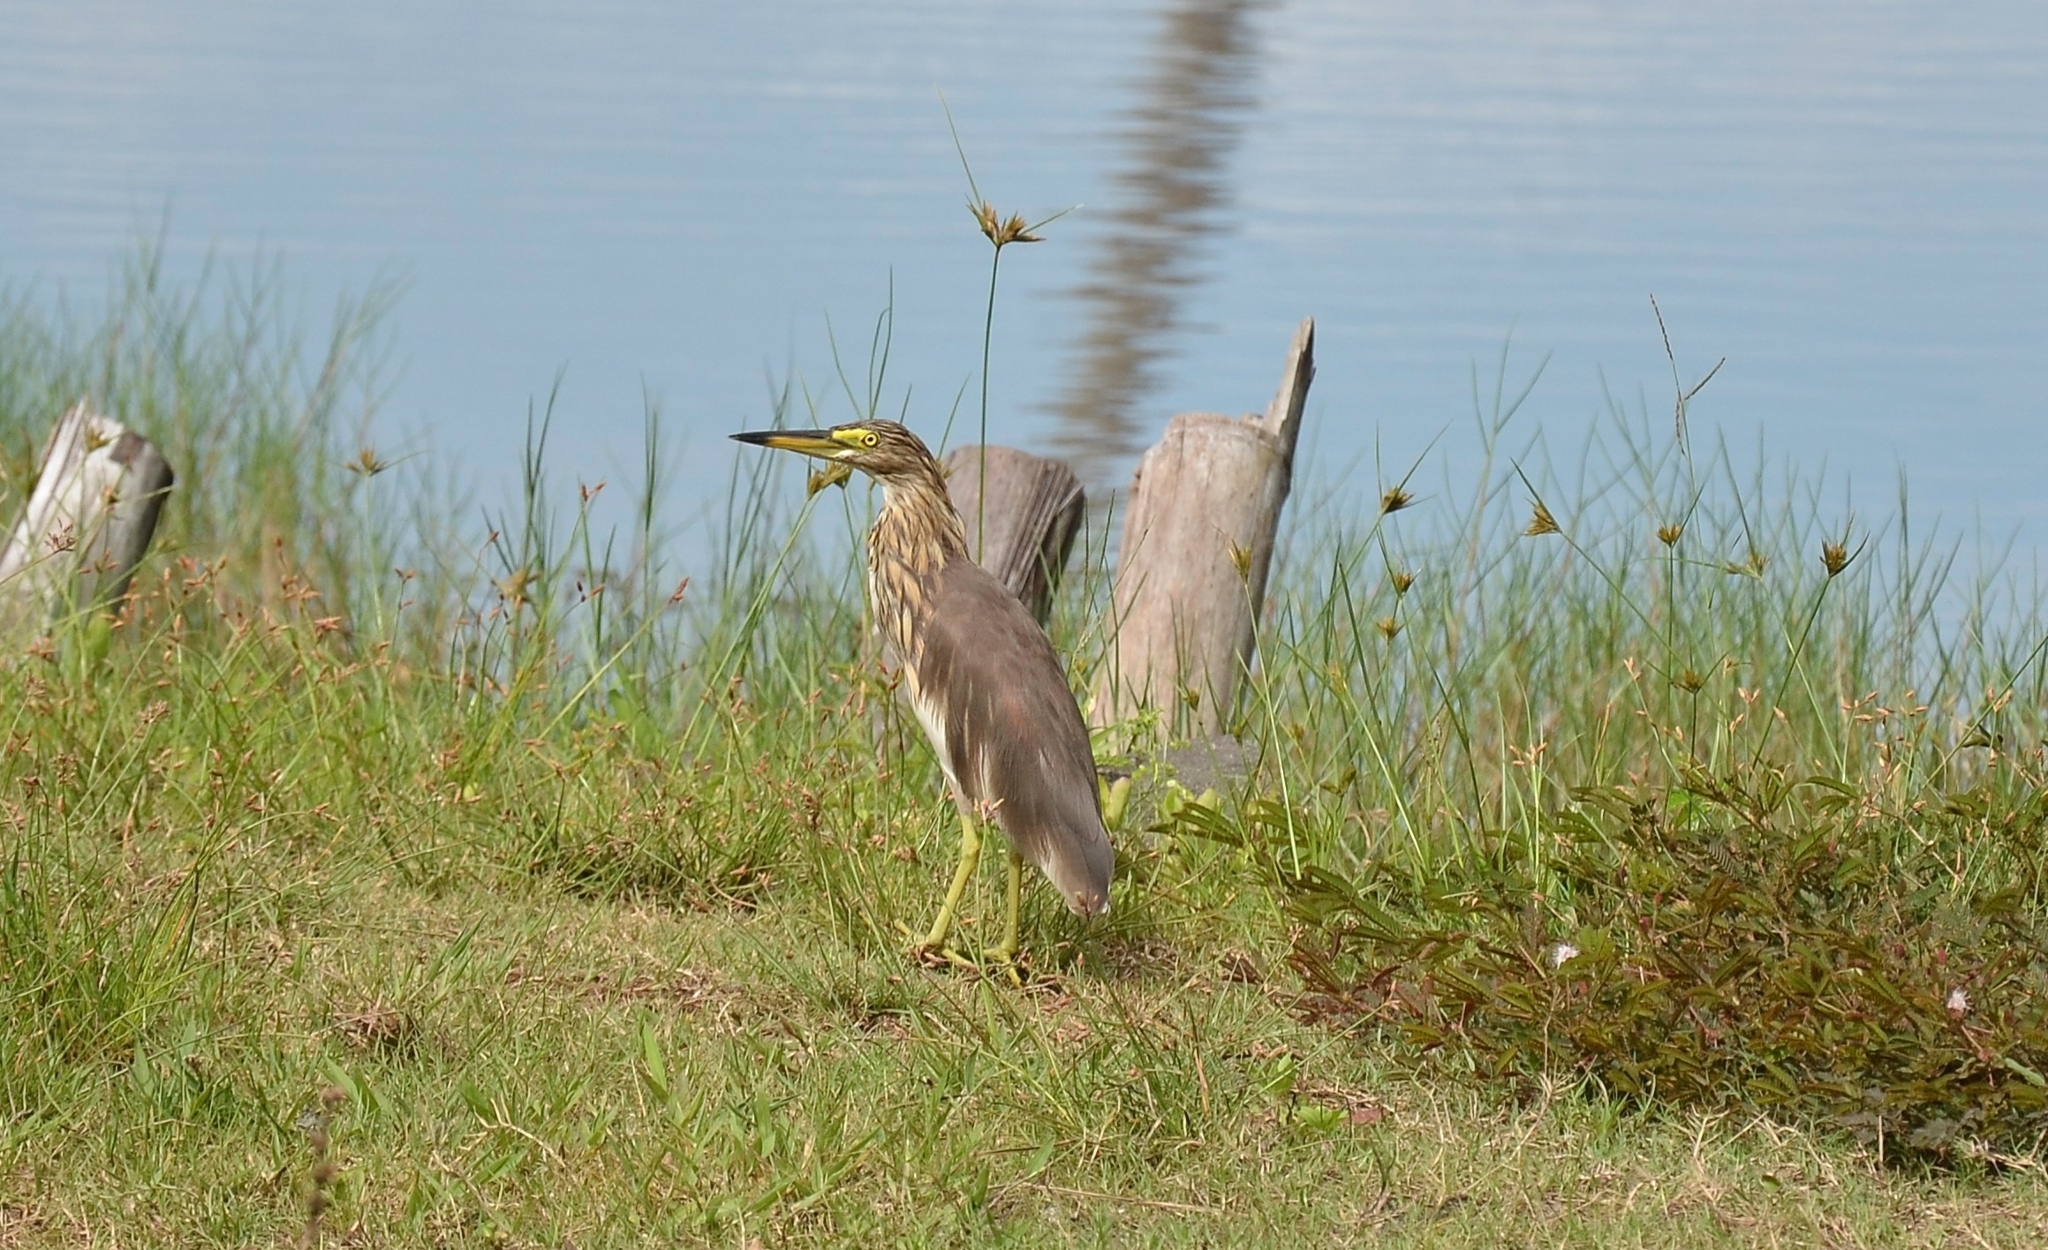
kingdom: Animalia
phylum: Chordata
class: Aves
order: Pelecaniformes
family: Ardeidae
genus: Ardeola
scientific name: Ardeola grayii
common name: Indian pond heron
